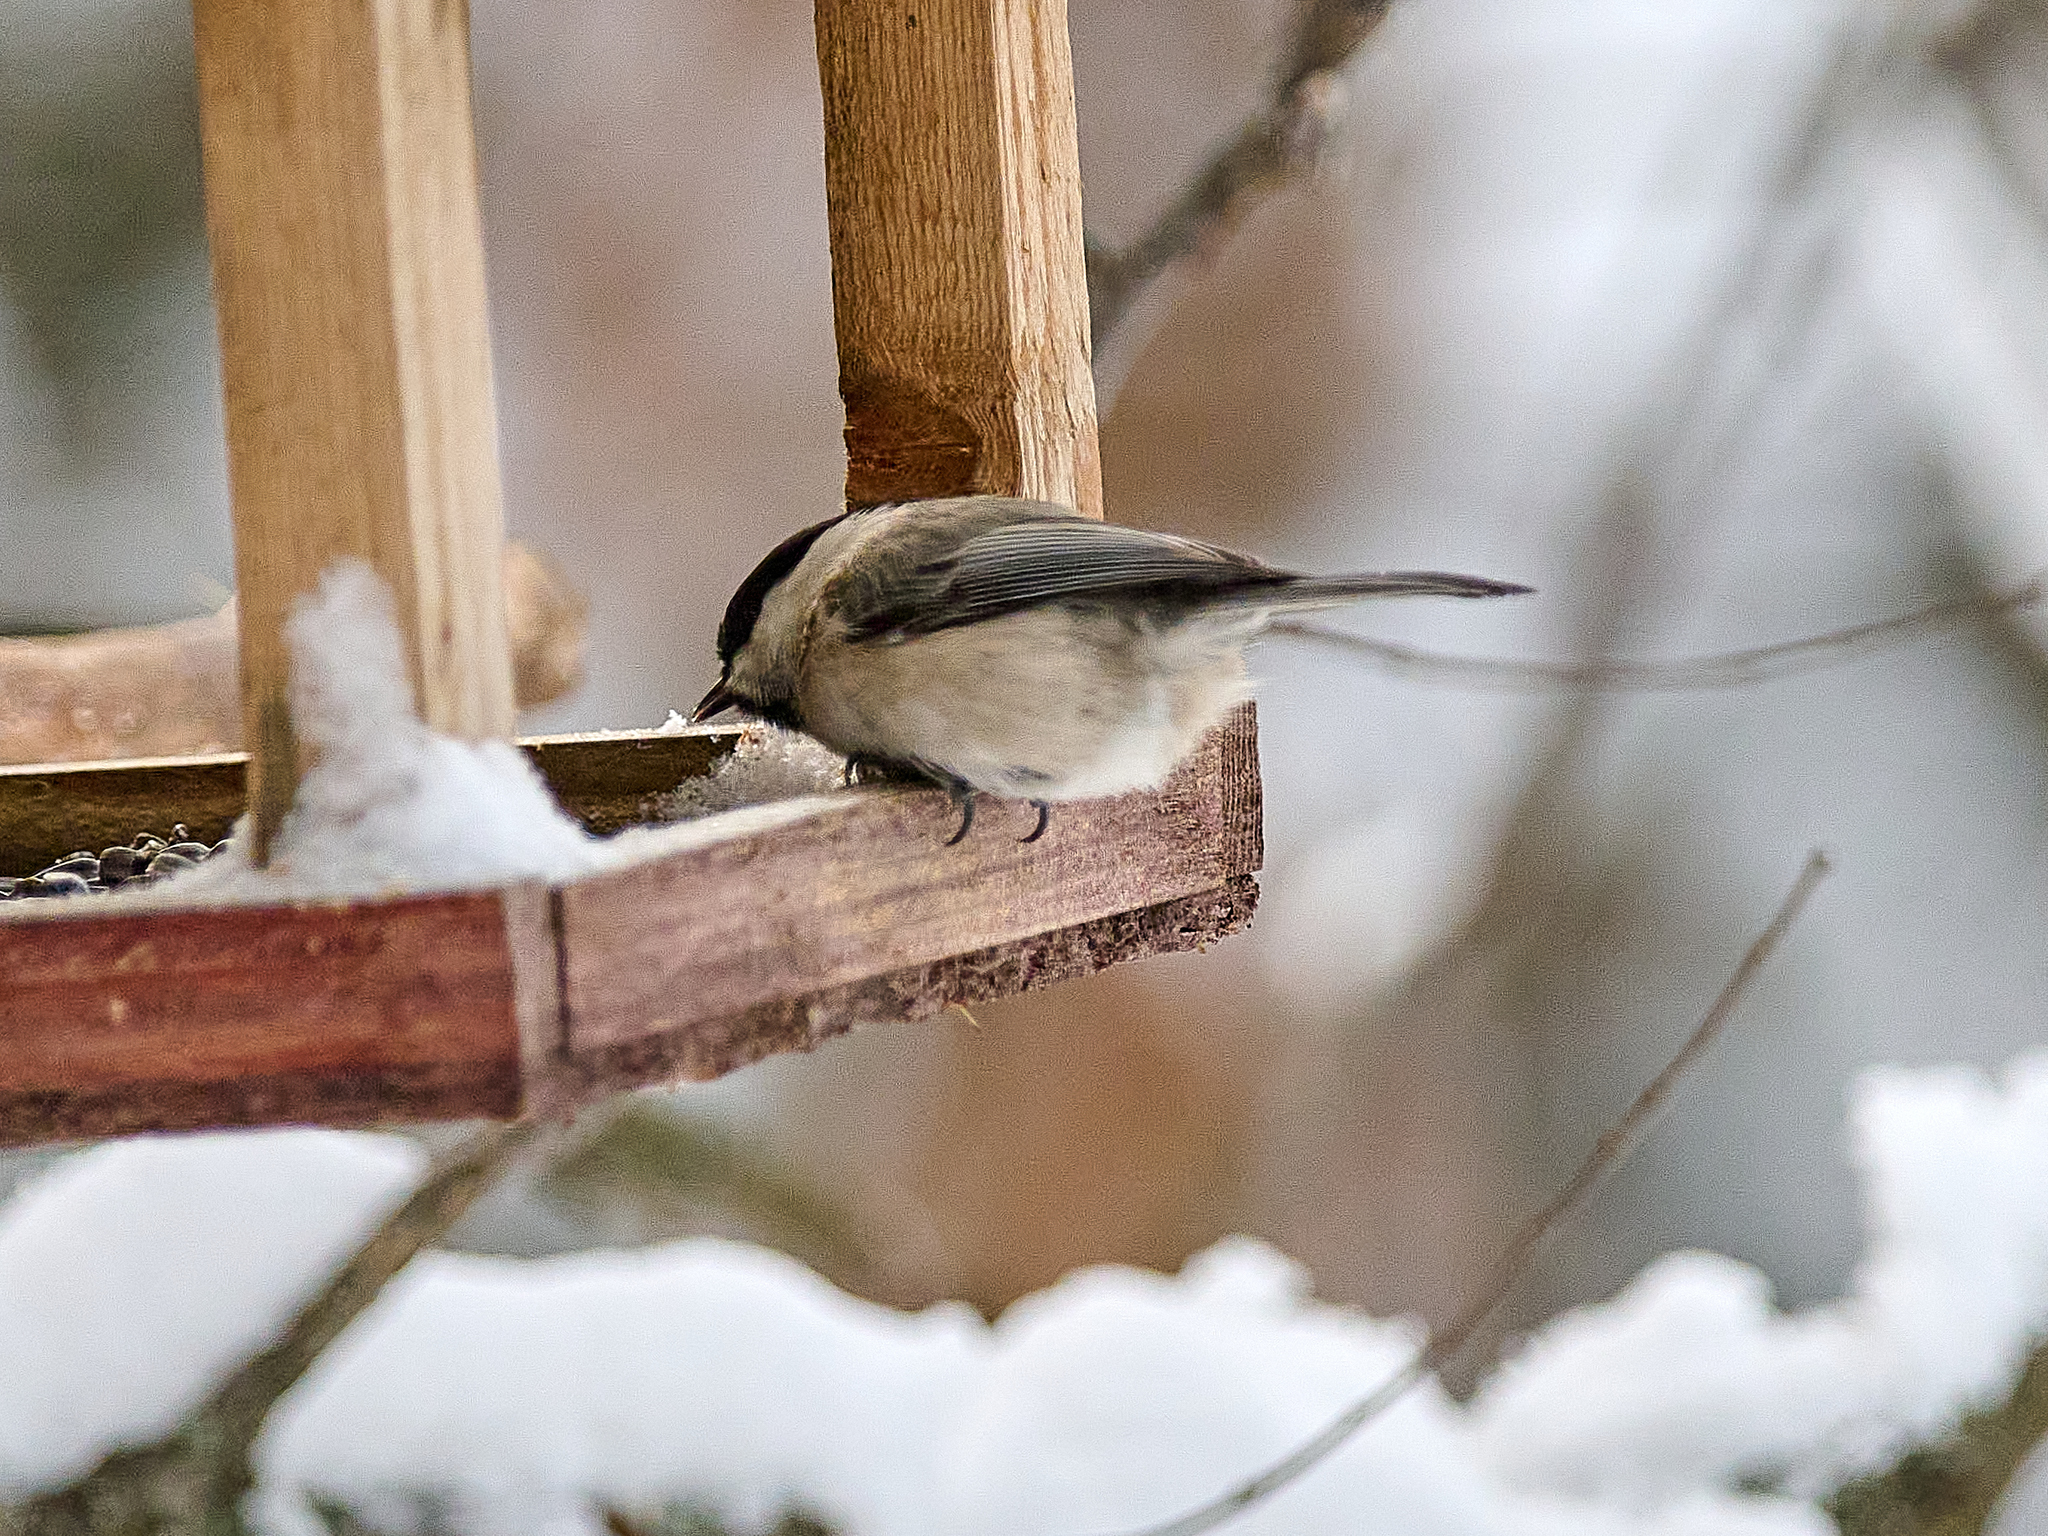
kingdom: Animalia
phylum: Chordata
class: Aves
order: Passeriformes
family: Paridae
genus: Poecile
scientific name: Poecile montanus
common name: Willow tit
